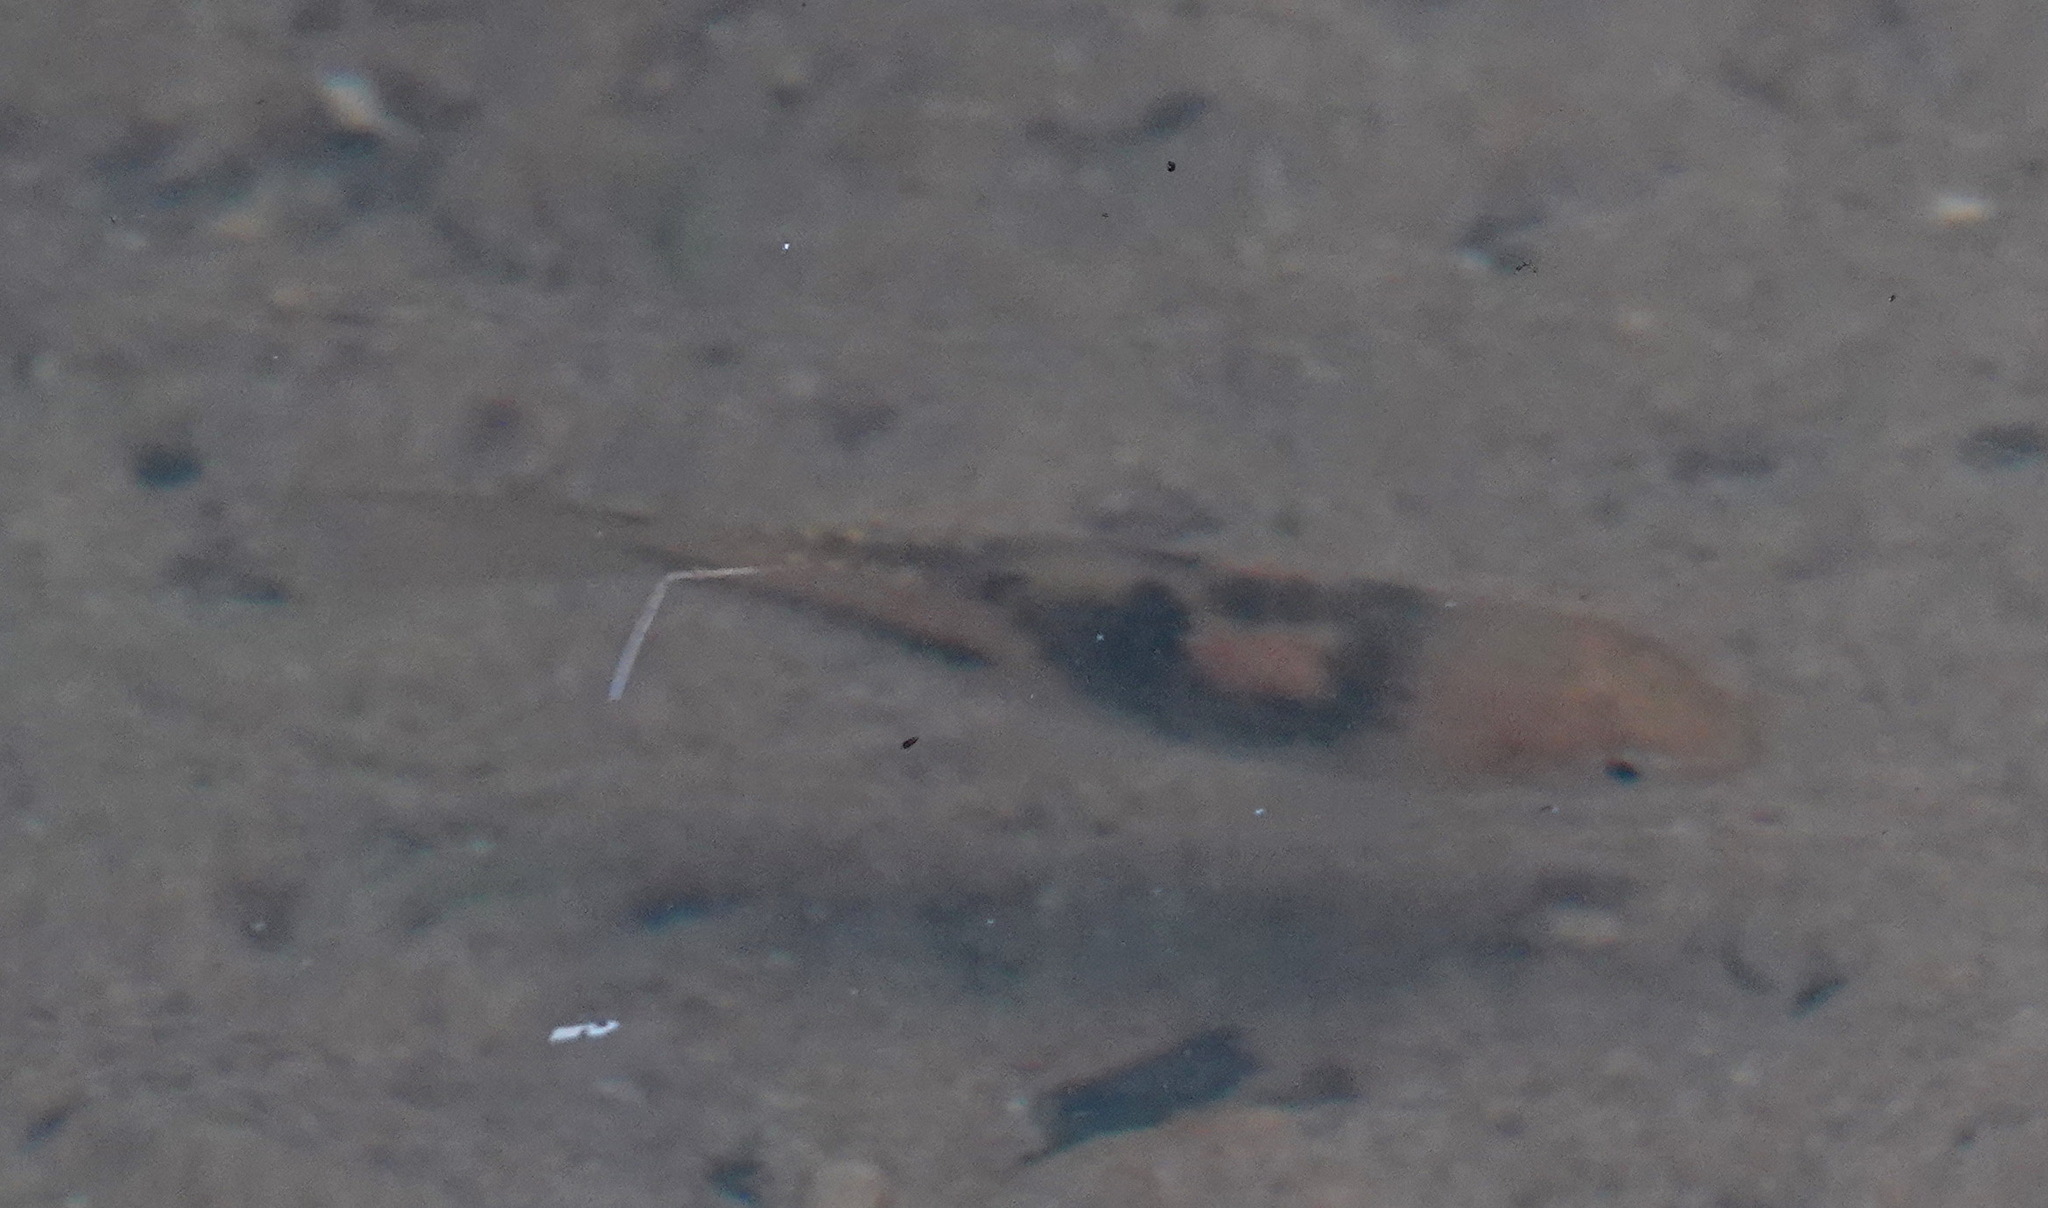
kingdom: Animalia
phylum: Chordata
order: Cypriniformes
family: Cyprinidae
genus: Barbodes
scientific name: Barbodes lateristriga
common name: Spanner barb
